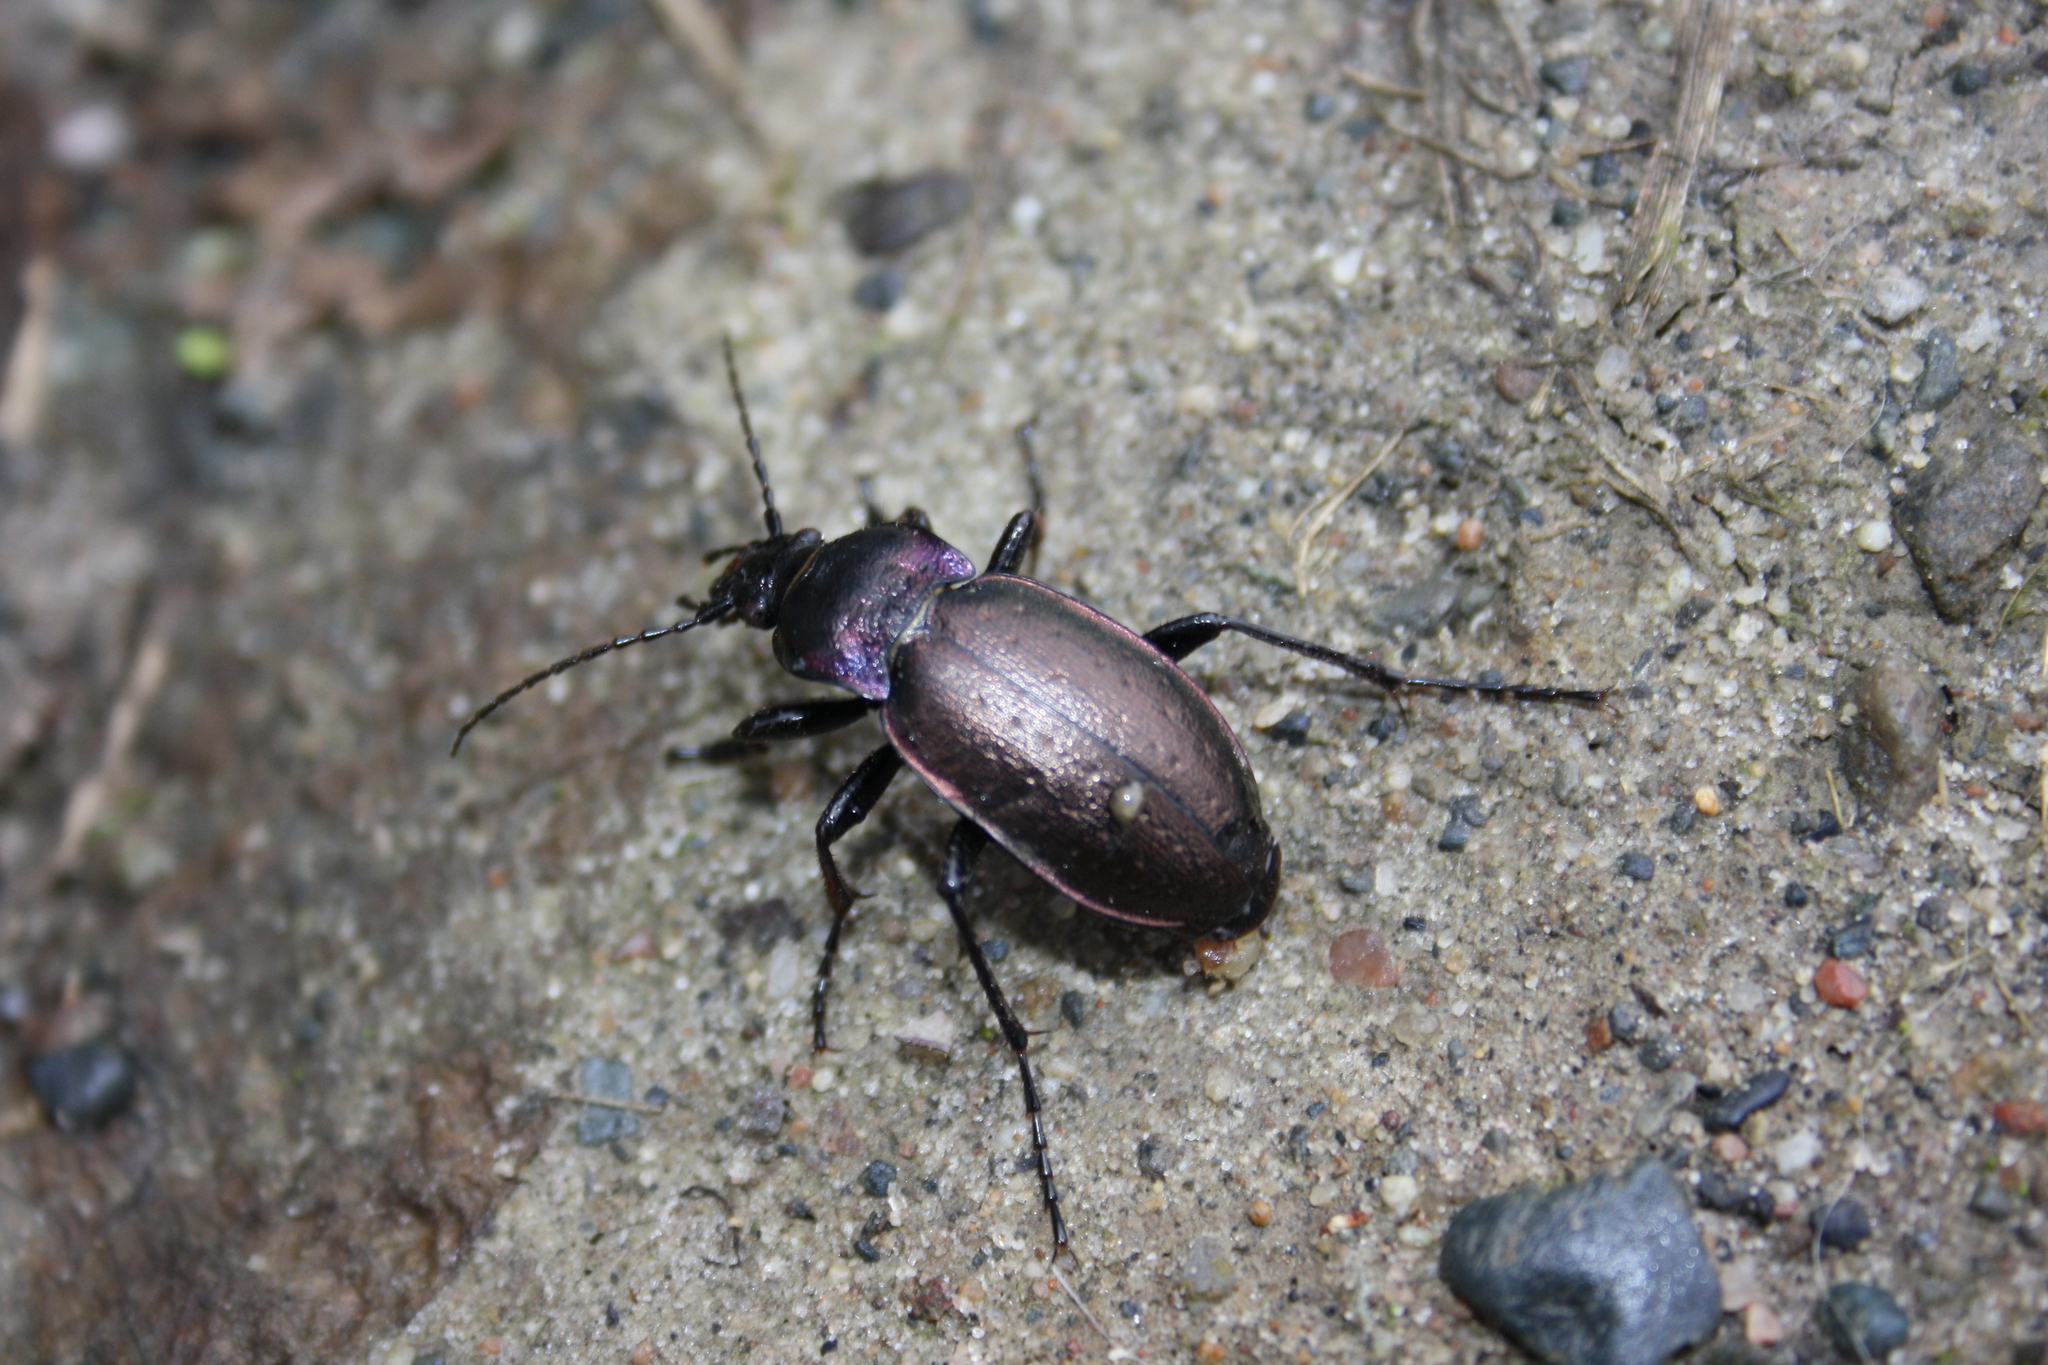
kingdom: Animalia
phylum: Arthropoda
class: Insecta
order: Coleoptera
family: Carabidae
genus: Carabus
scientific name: Carabus nemoralis
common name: European ground beetle
